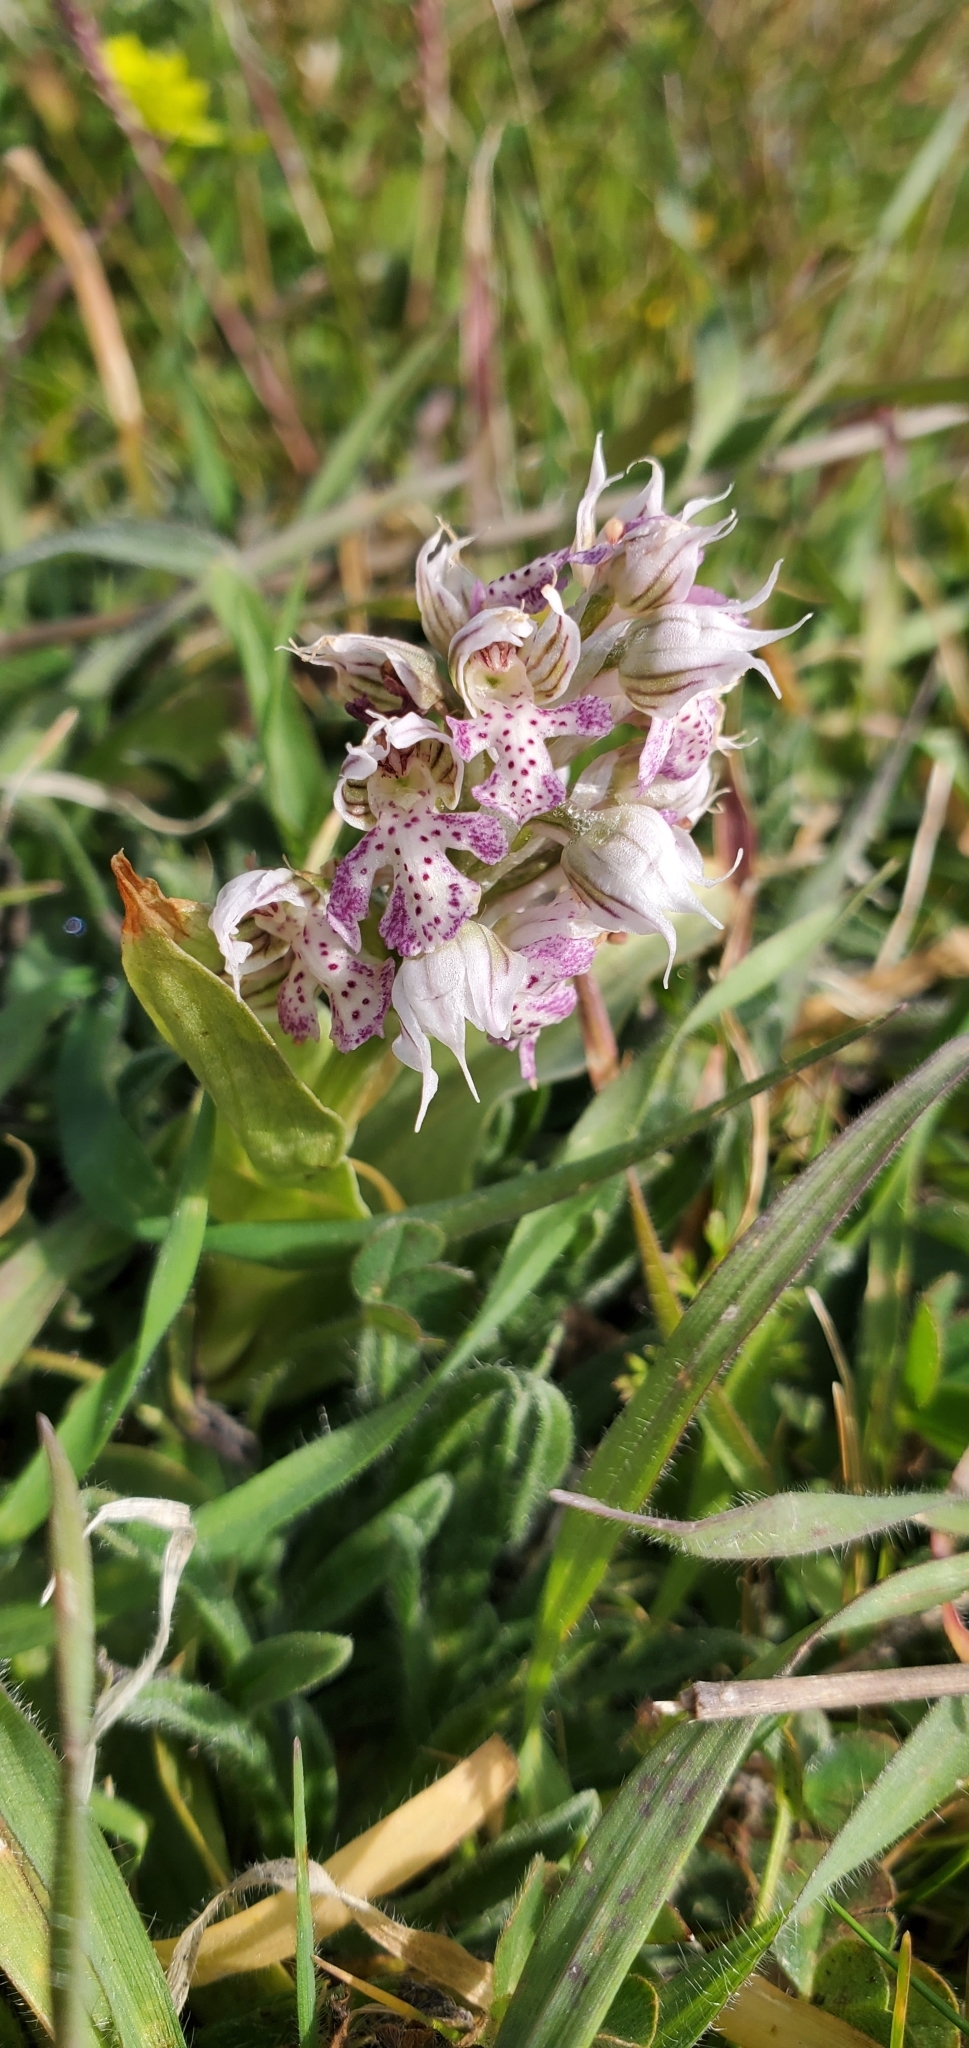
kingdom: Plantae
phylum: Tracheophyta
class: Liliopsida
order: Asparagales
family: Orchidaceae
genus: Neotinea
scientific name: Neotinea lactea
